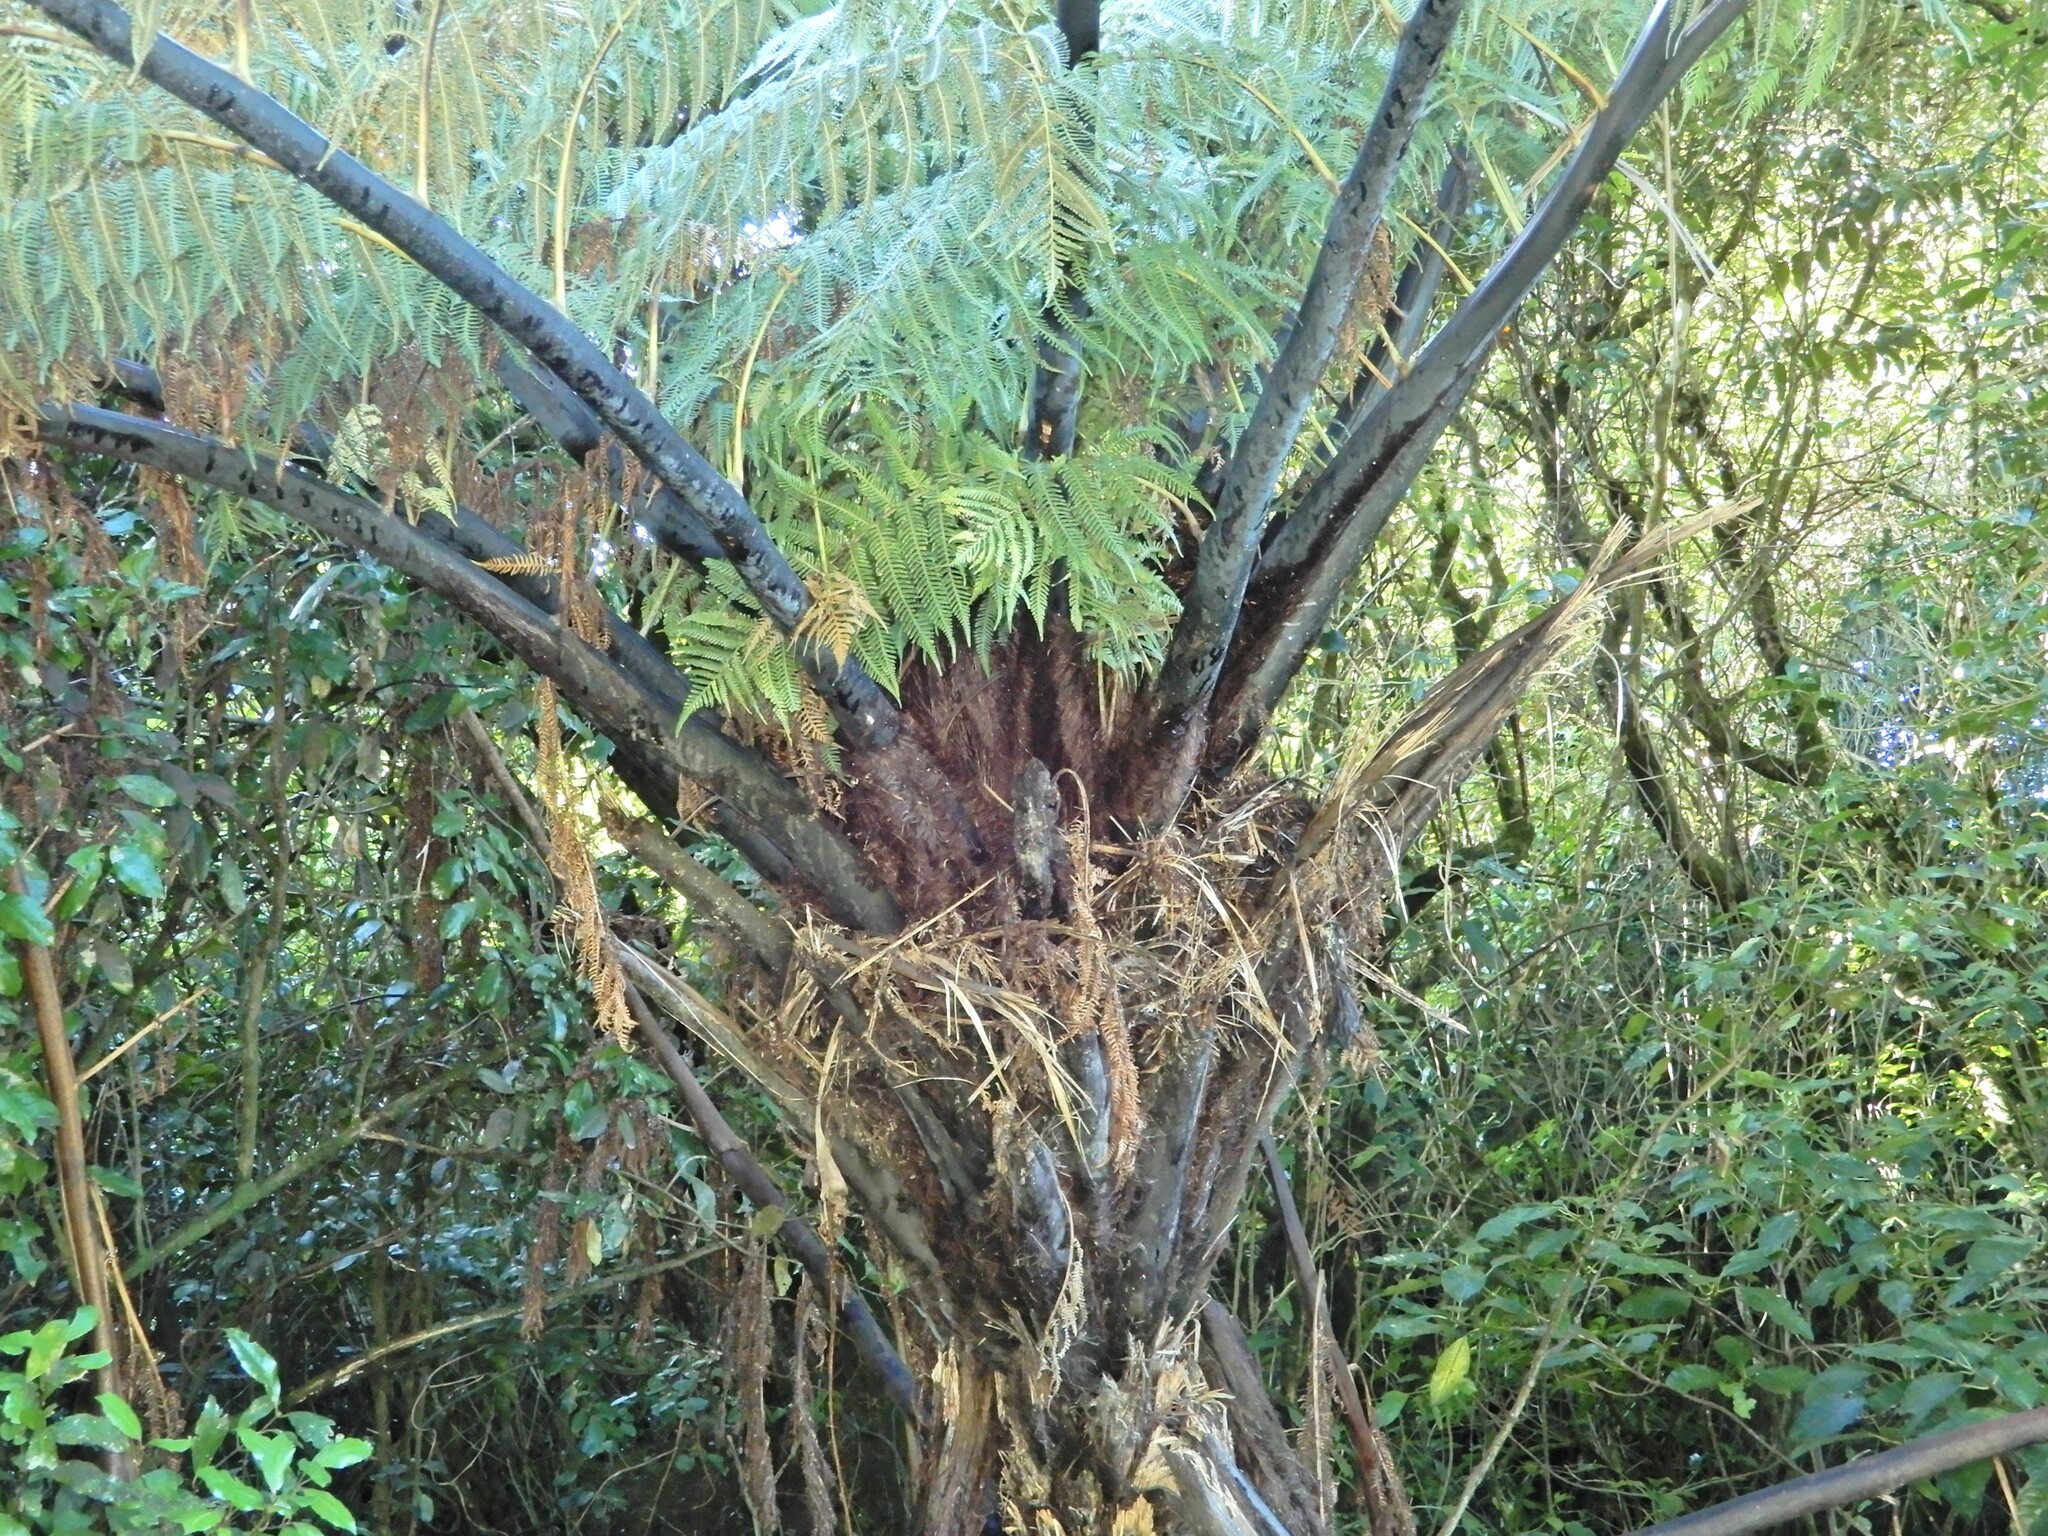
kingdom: Plantae
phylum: Tracheophyta
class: Polypodiopsida
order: Cyatheales
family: Cyatheaceae
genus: Sphaeropteris
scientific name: Sphaeropteris medullaris
